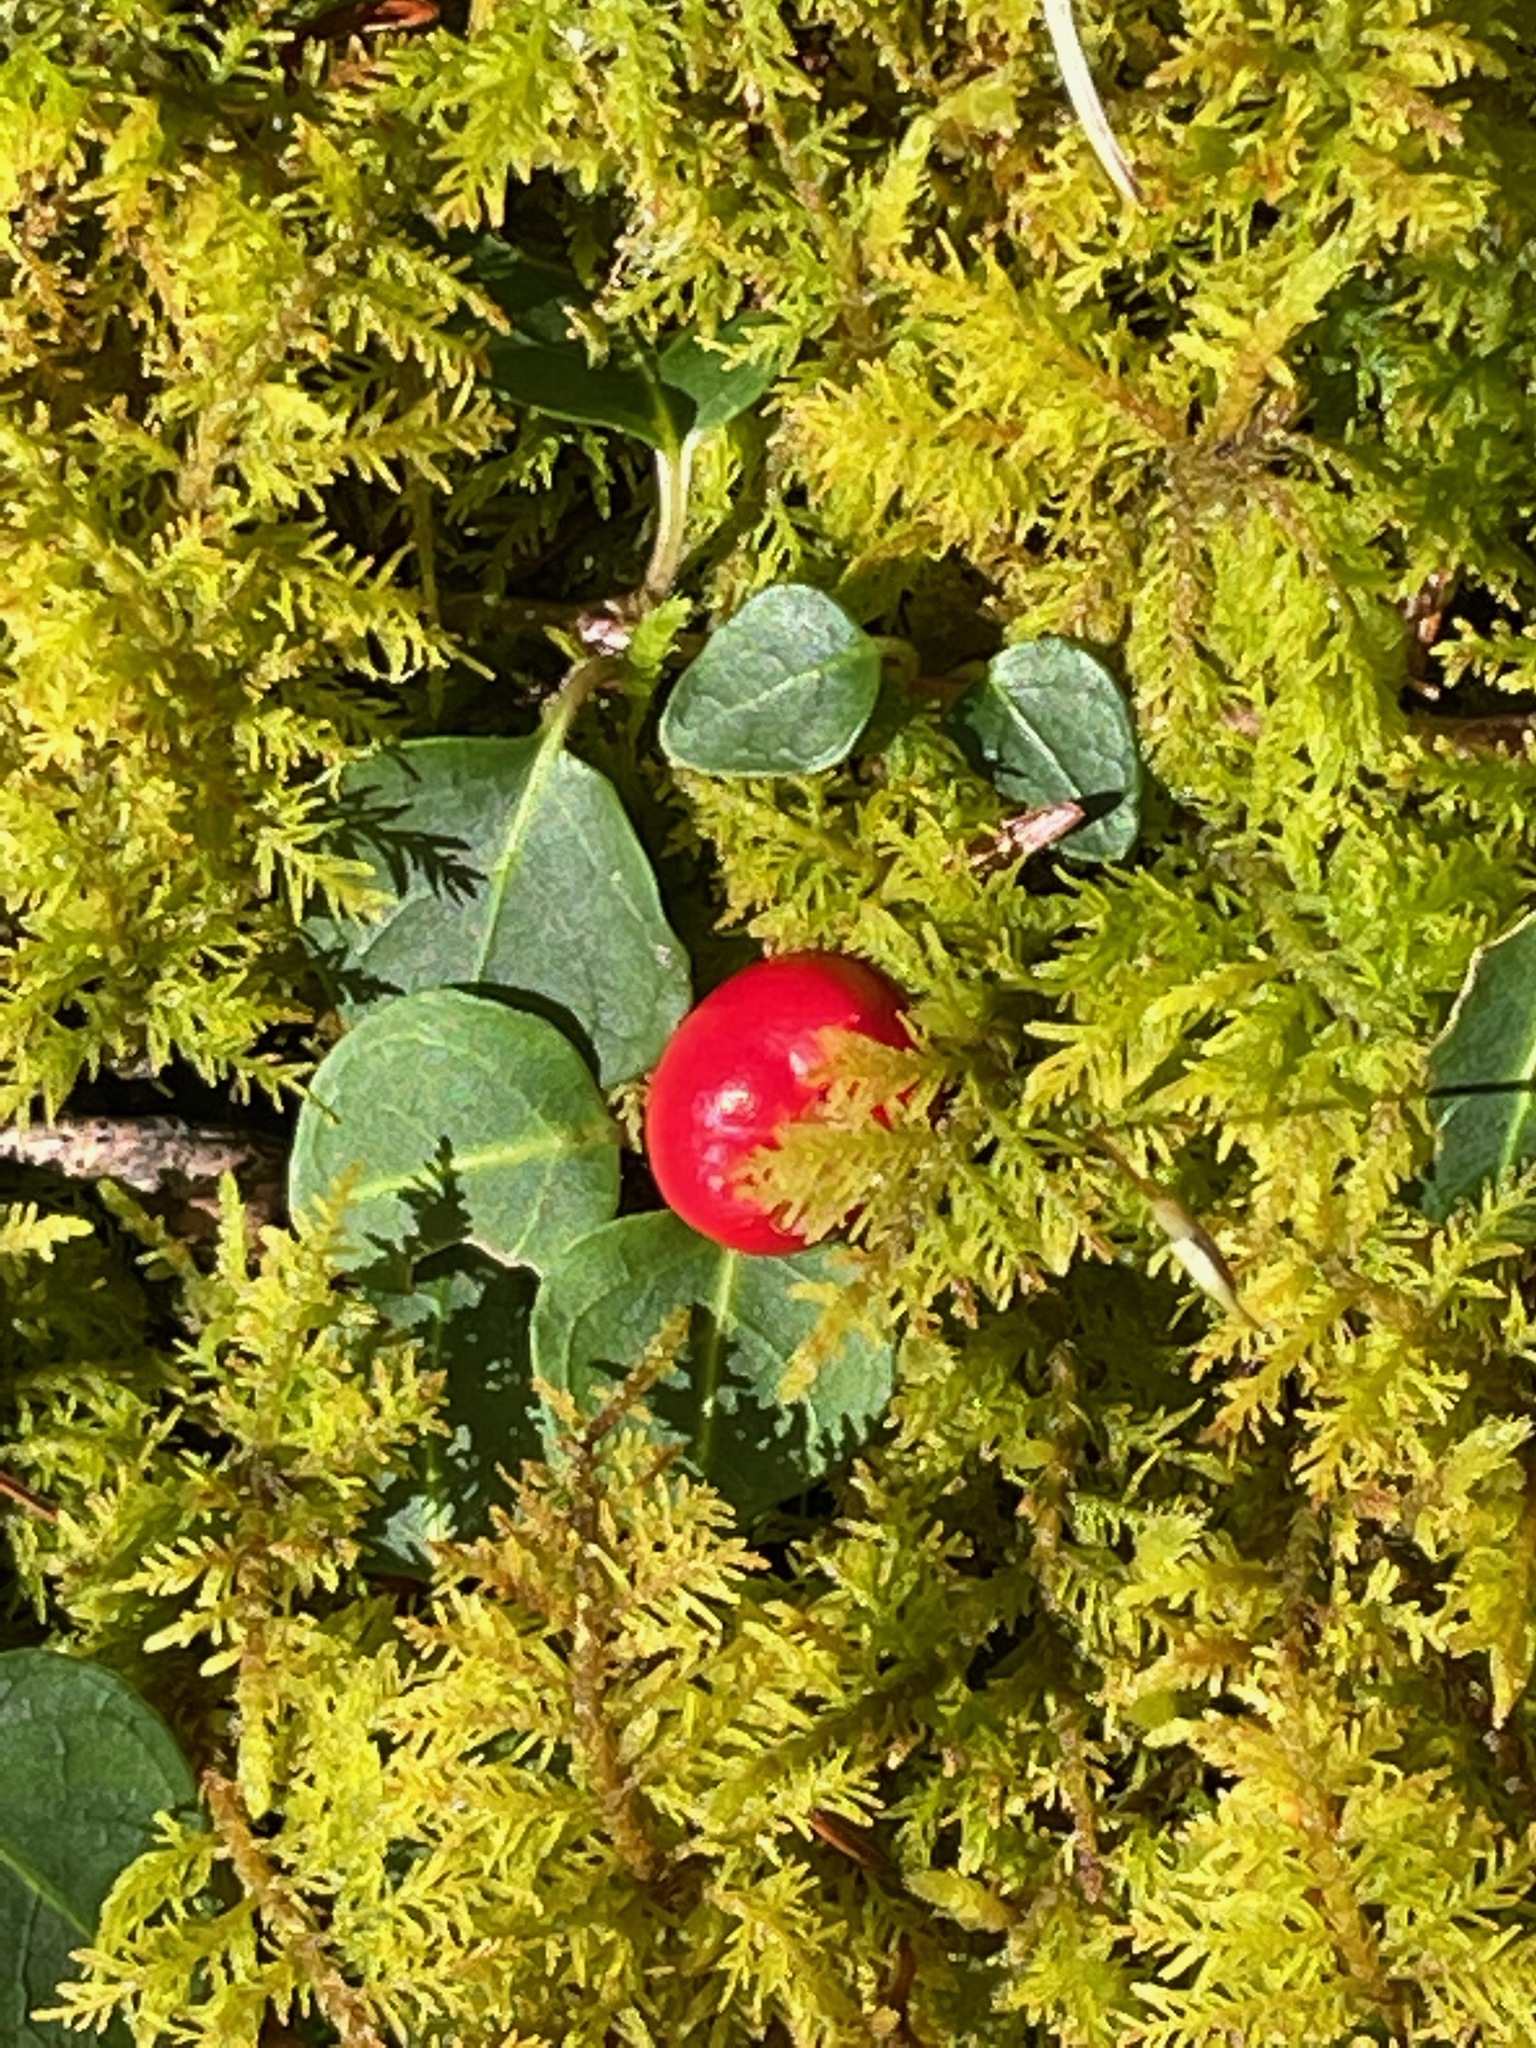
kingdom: Plantae
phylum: Tracheophyta
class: Magnoliopsida
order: Gentianales
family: Rubiaceae
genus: Mitchella
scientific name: Mitchella repens
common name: Partridge-berry
